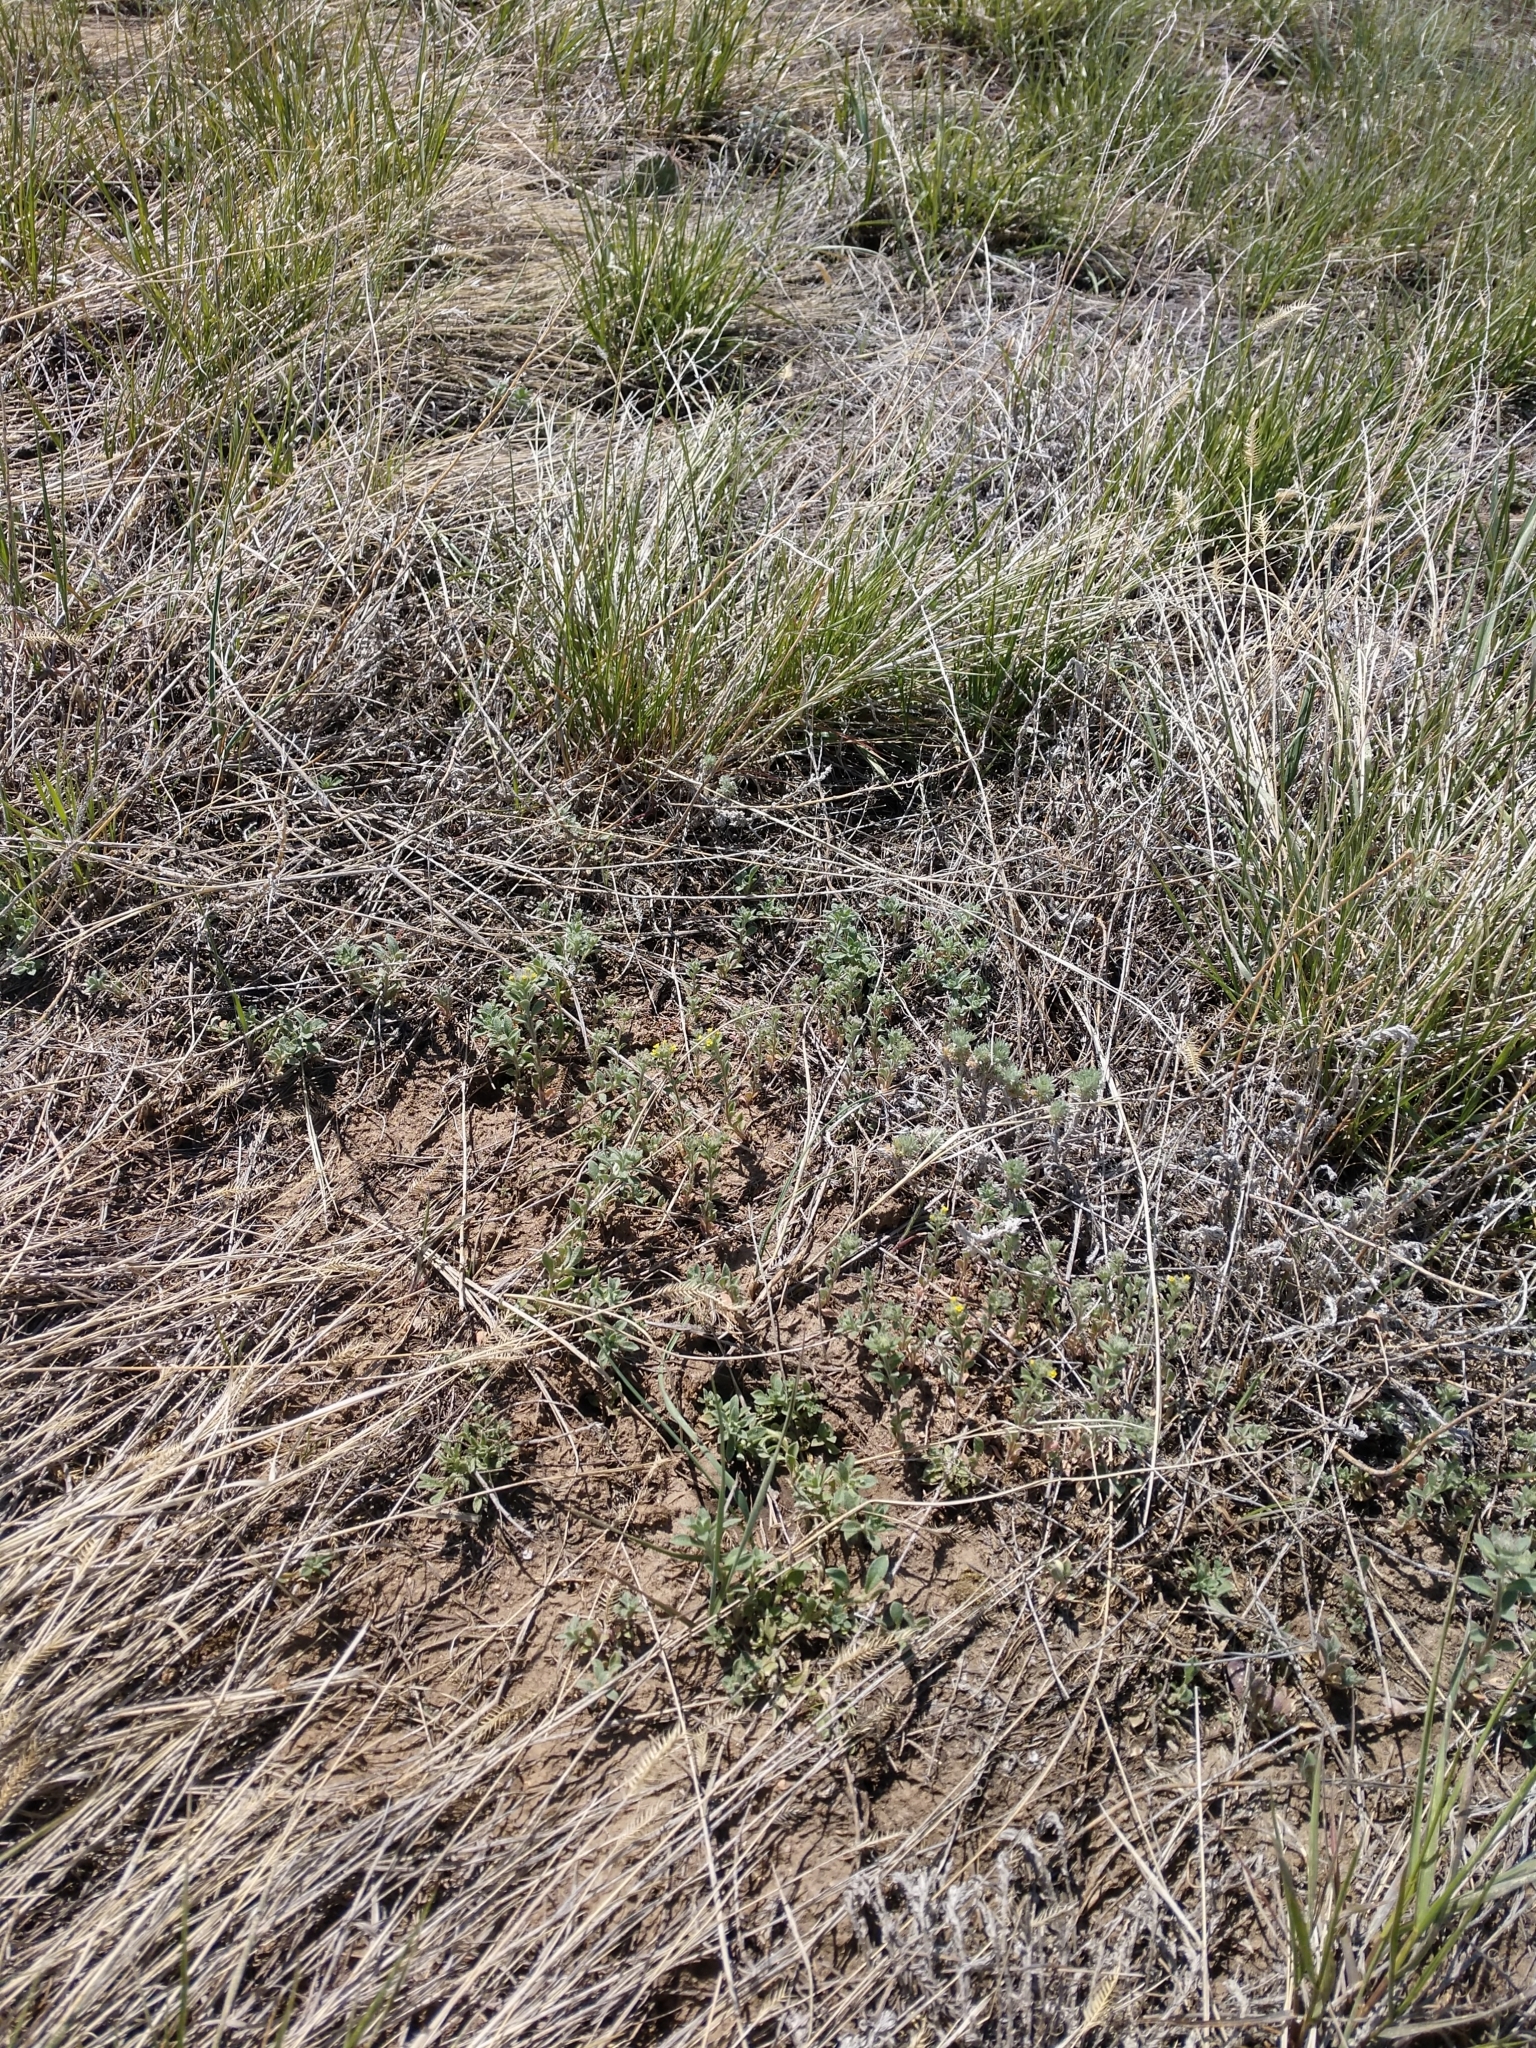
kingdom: Plantae
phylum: Tracheophyta
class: Magnoliopsida
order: Brassicales
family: Brassicaceae
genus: Alyssum
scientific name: Alyssum simplex
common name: Alyssum
